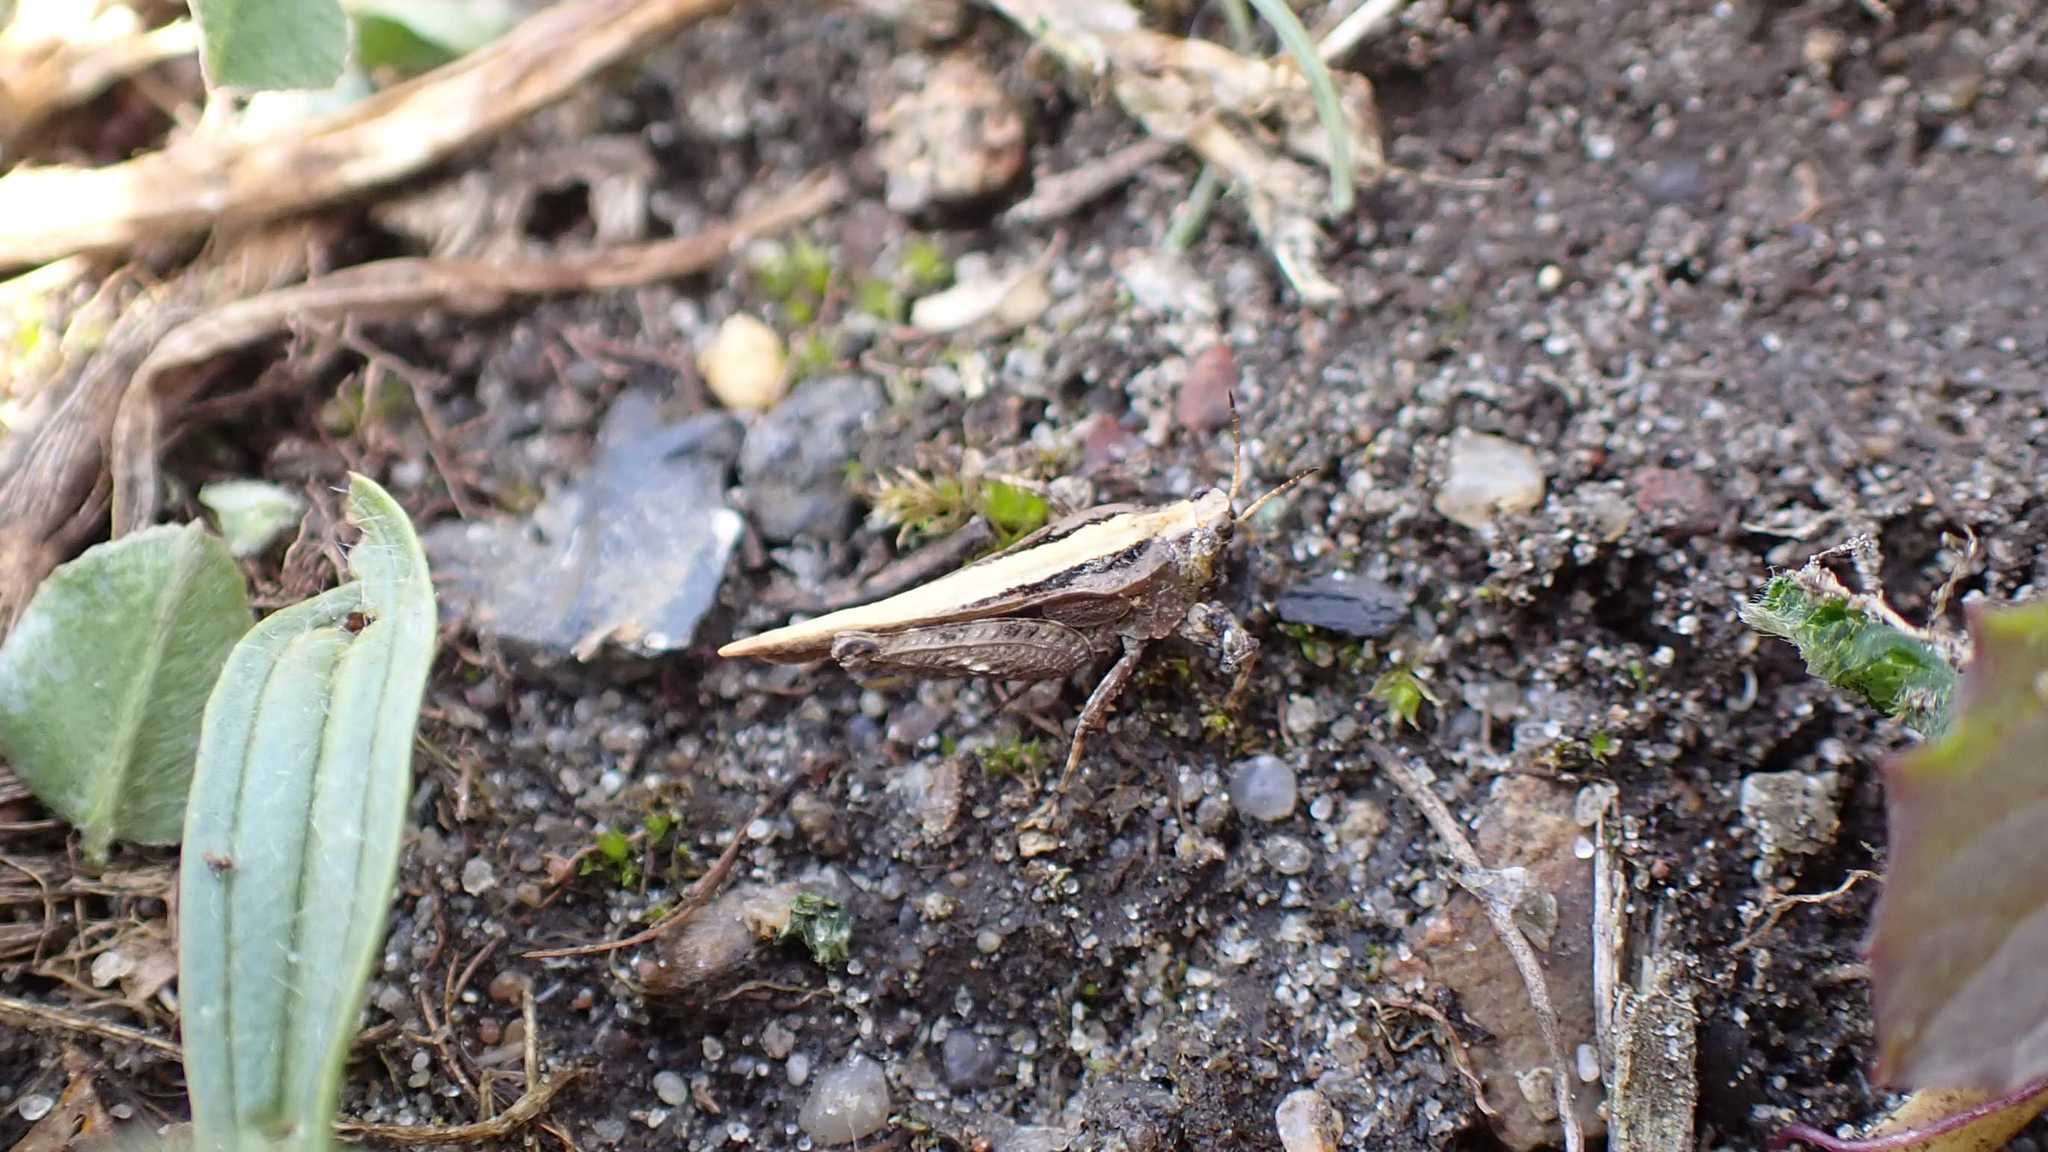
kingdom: Animalia
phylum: Arthropoda
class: Insecta
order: Orthoptera
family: Tetrigidae
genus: Tetrix
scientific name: Tetrix subulata
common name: Slender ground-hopper
